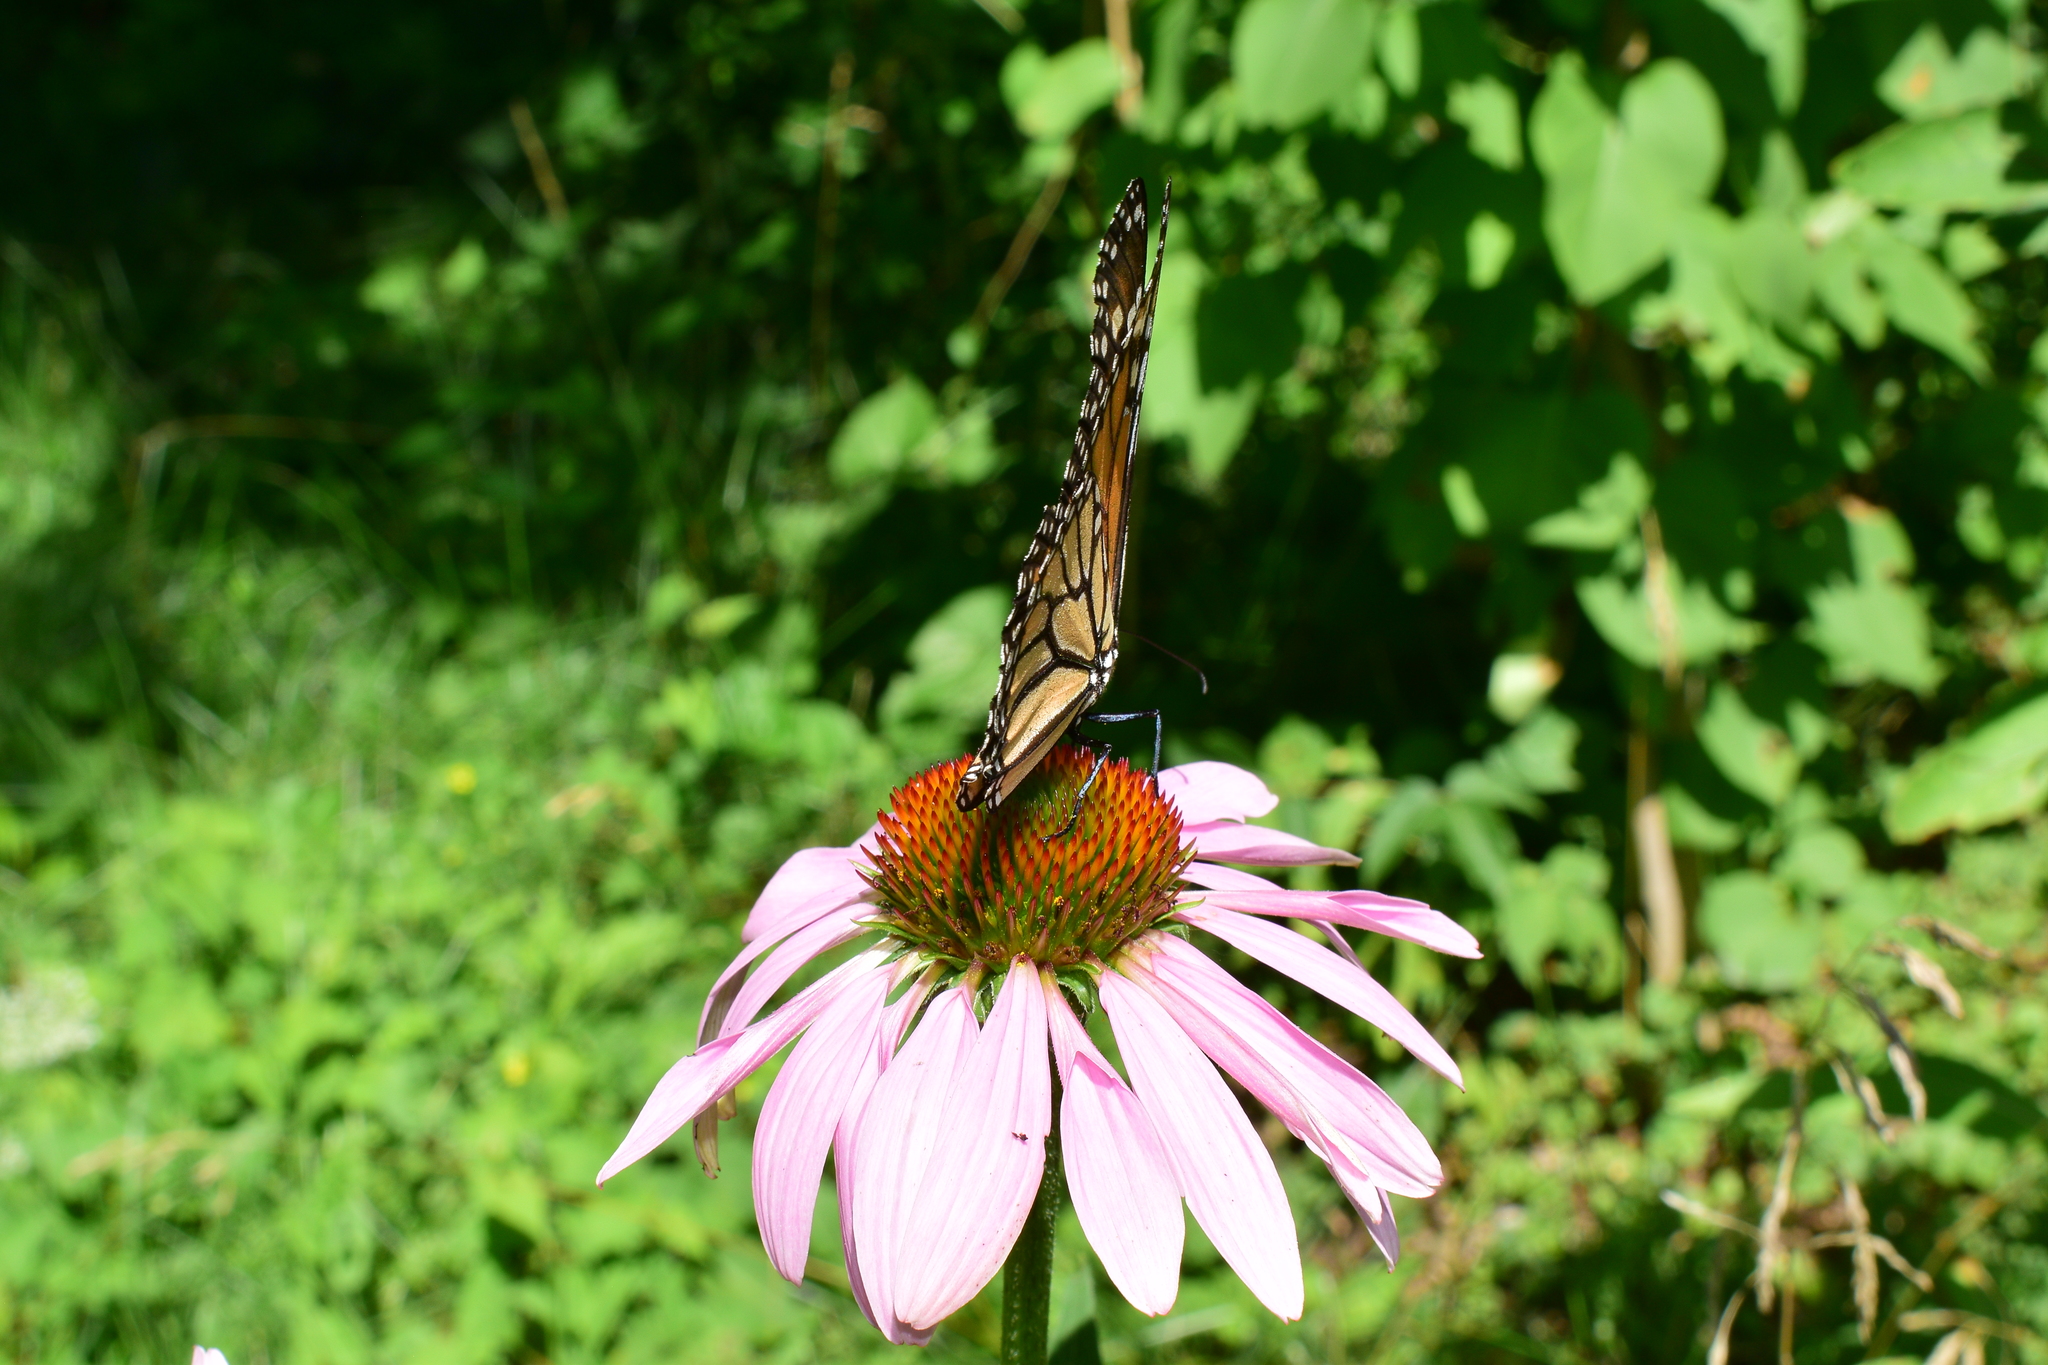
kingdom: Animalia
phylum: Arthropoda
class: Insecta
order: Lepidoptera
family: Nymphalidae
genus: Danaus
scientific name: Danaus plexippus
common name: Monarch
